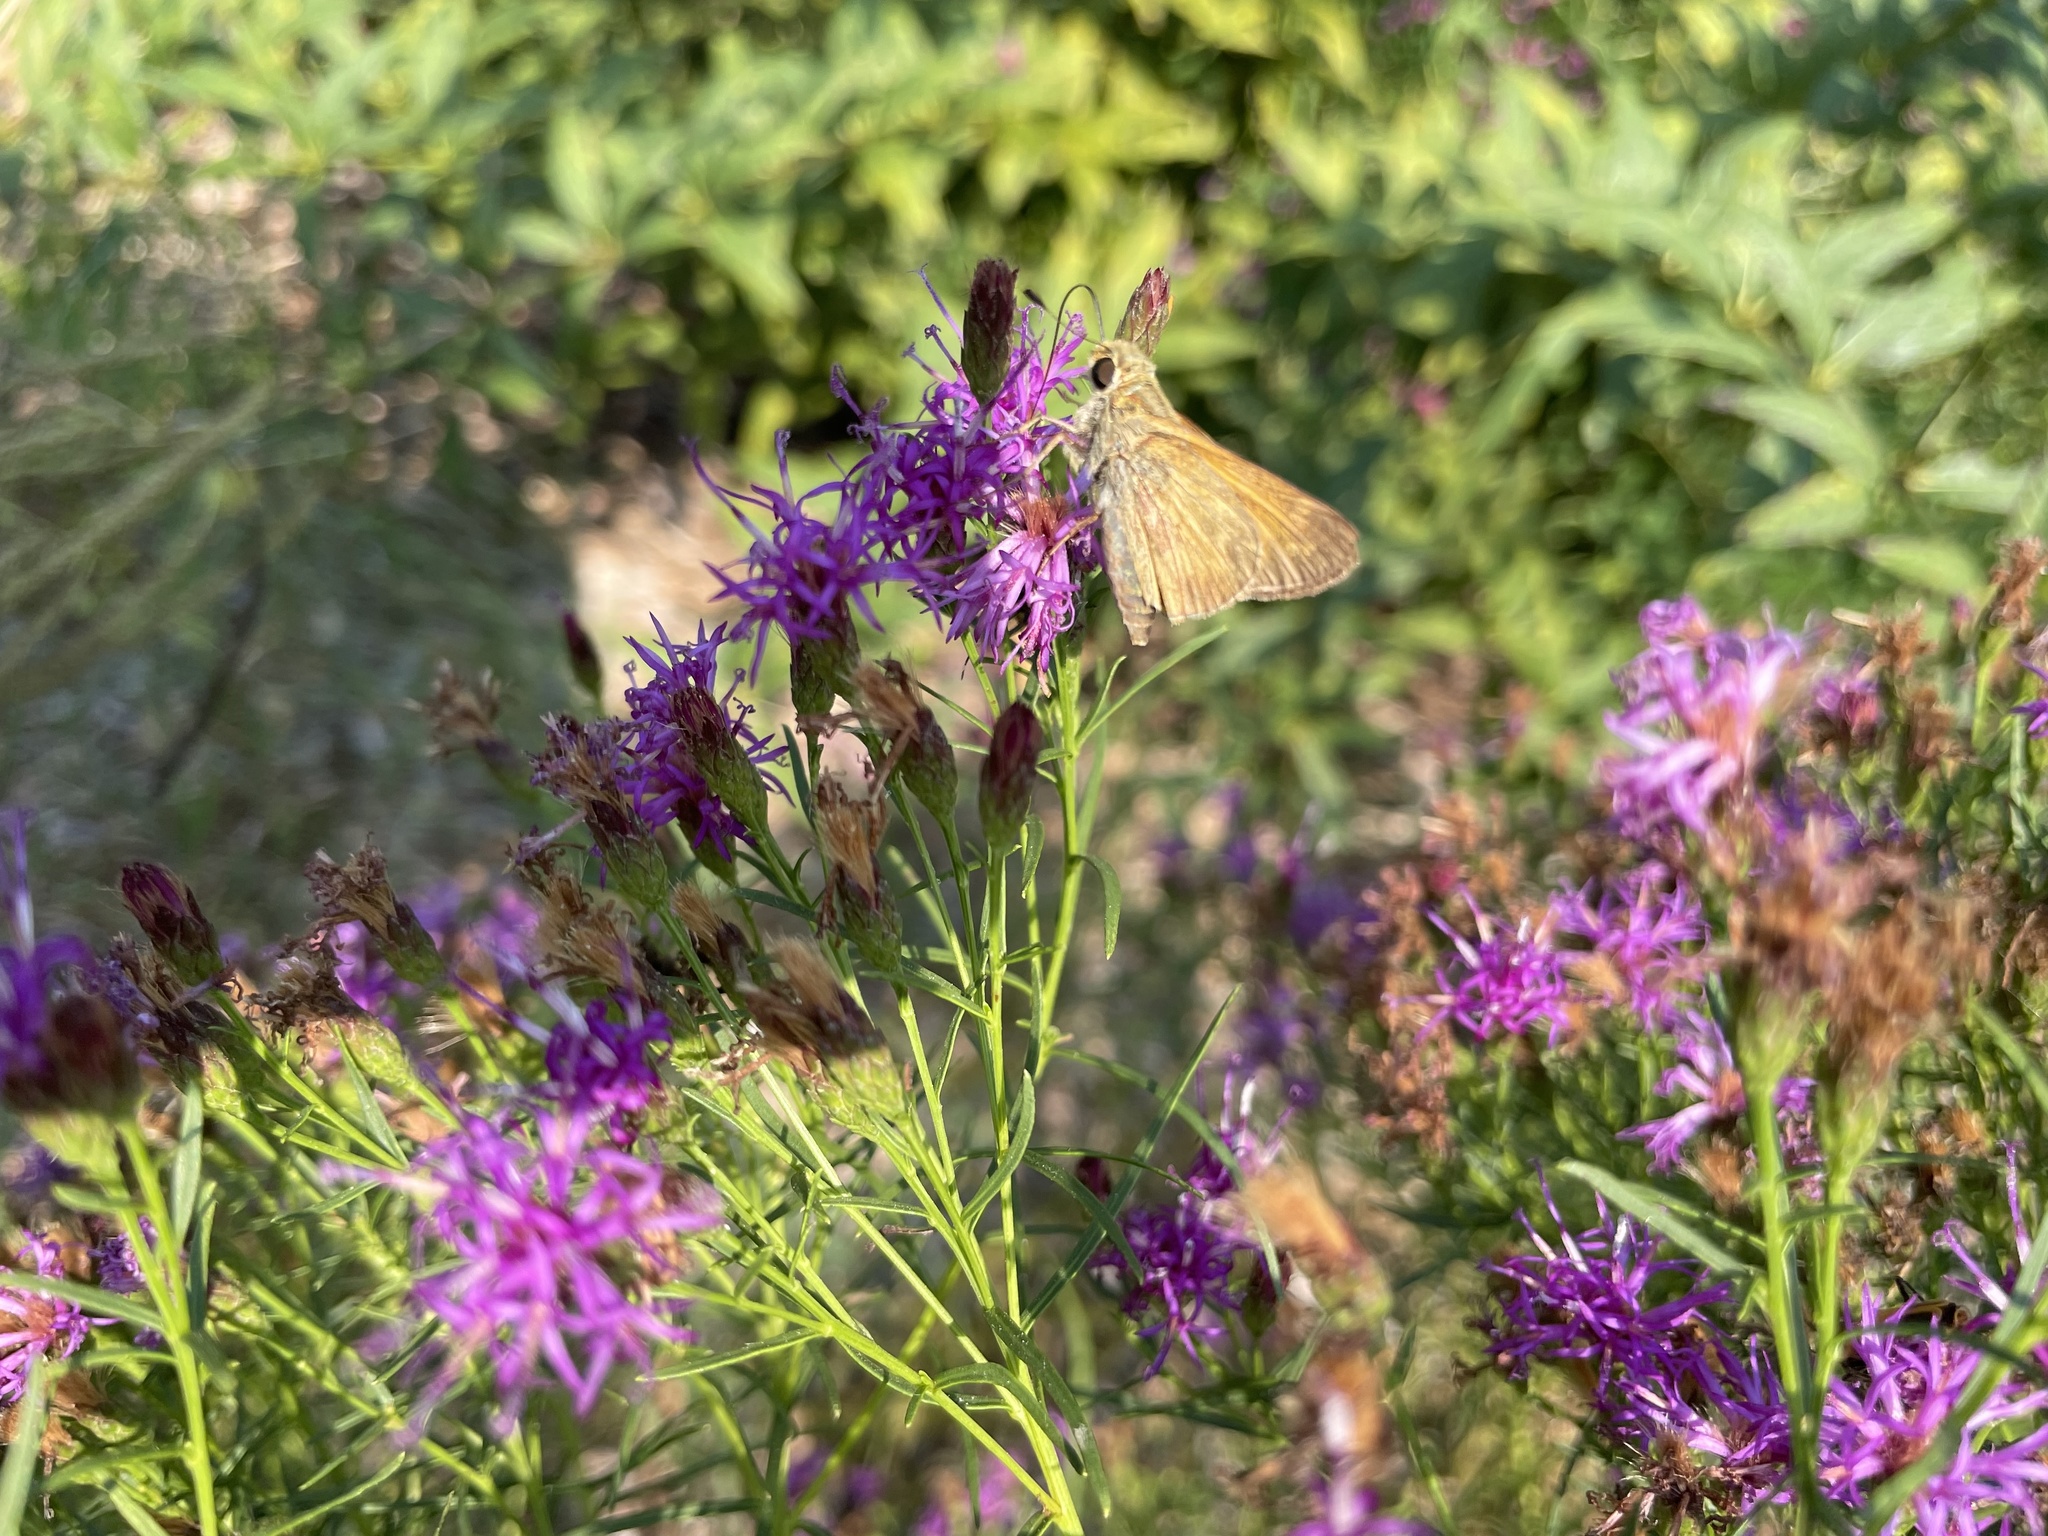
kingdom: Animalia
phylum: Arthropoda
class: Insecta
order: Lepidoptera
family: Hesperiidae
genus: Atalopedes
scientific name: Atalopedes
